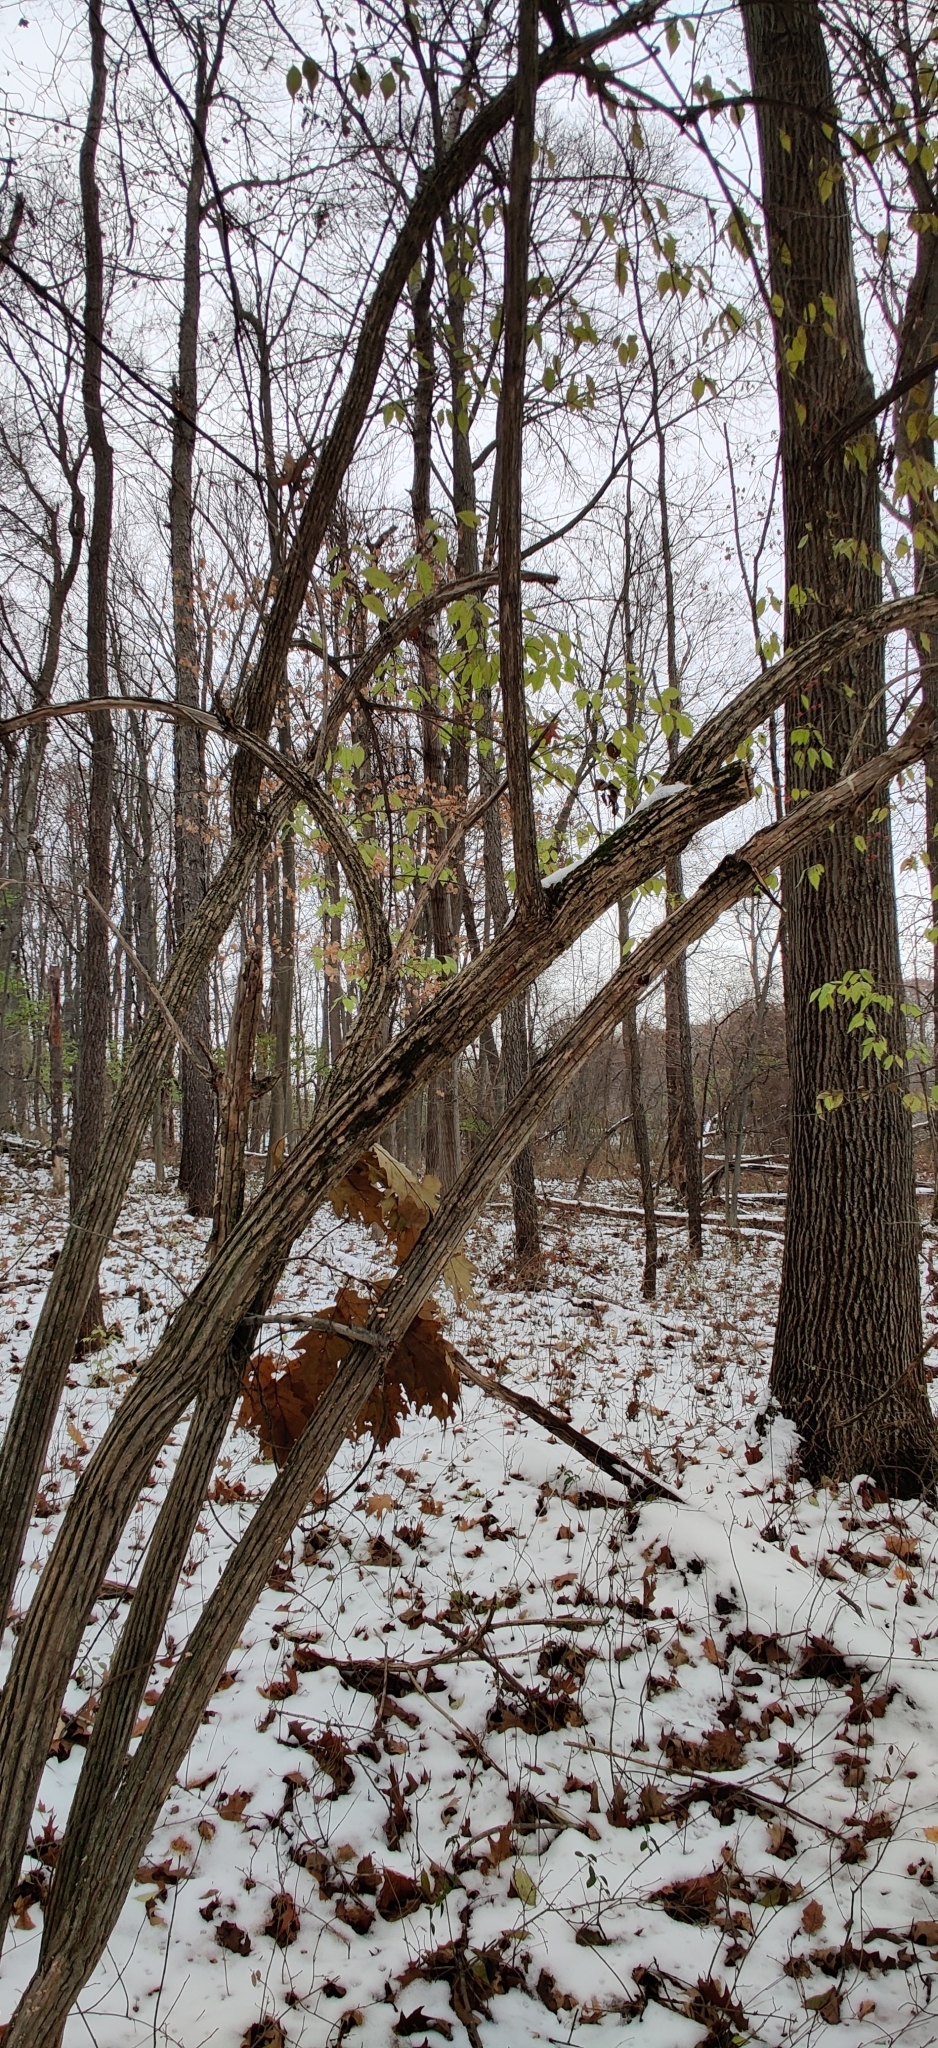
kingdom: Plantae
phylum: Tracheophyta
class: Magnoliopsida
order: Dipsacales
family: Caprifoliaceae
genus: Lonicera
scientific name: Lonicera maackii
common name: Amur honeysuckle
